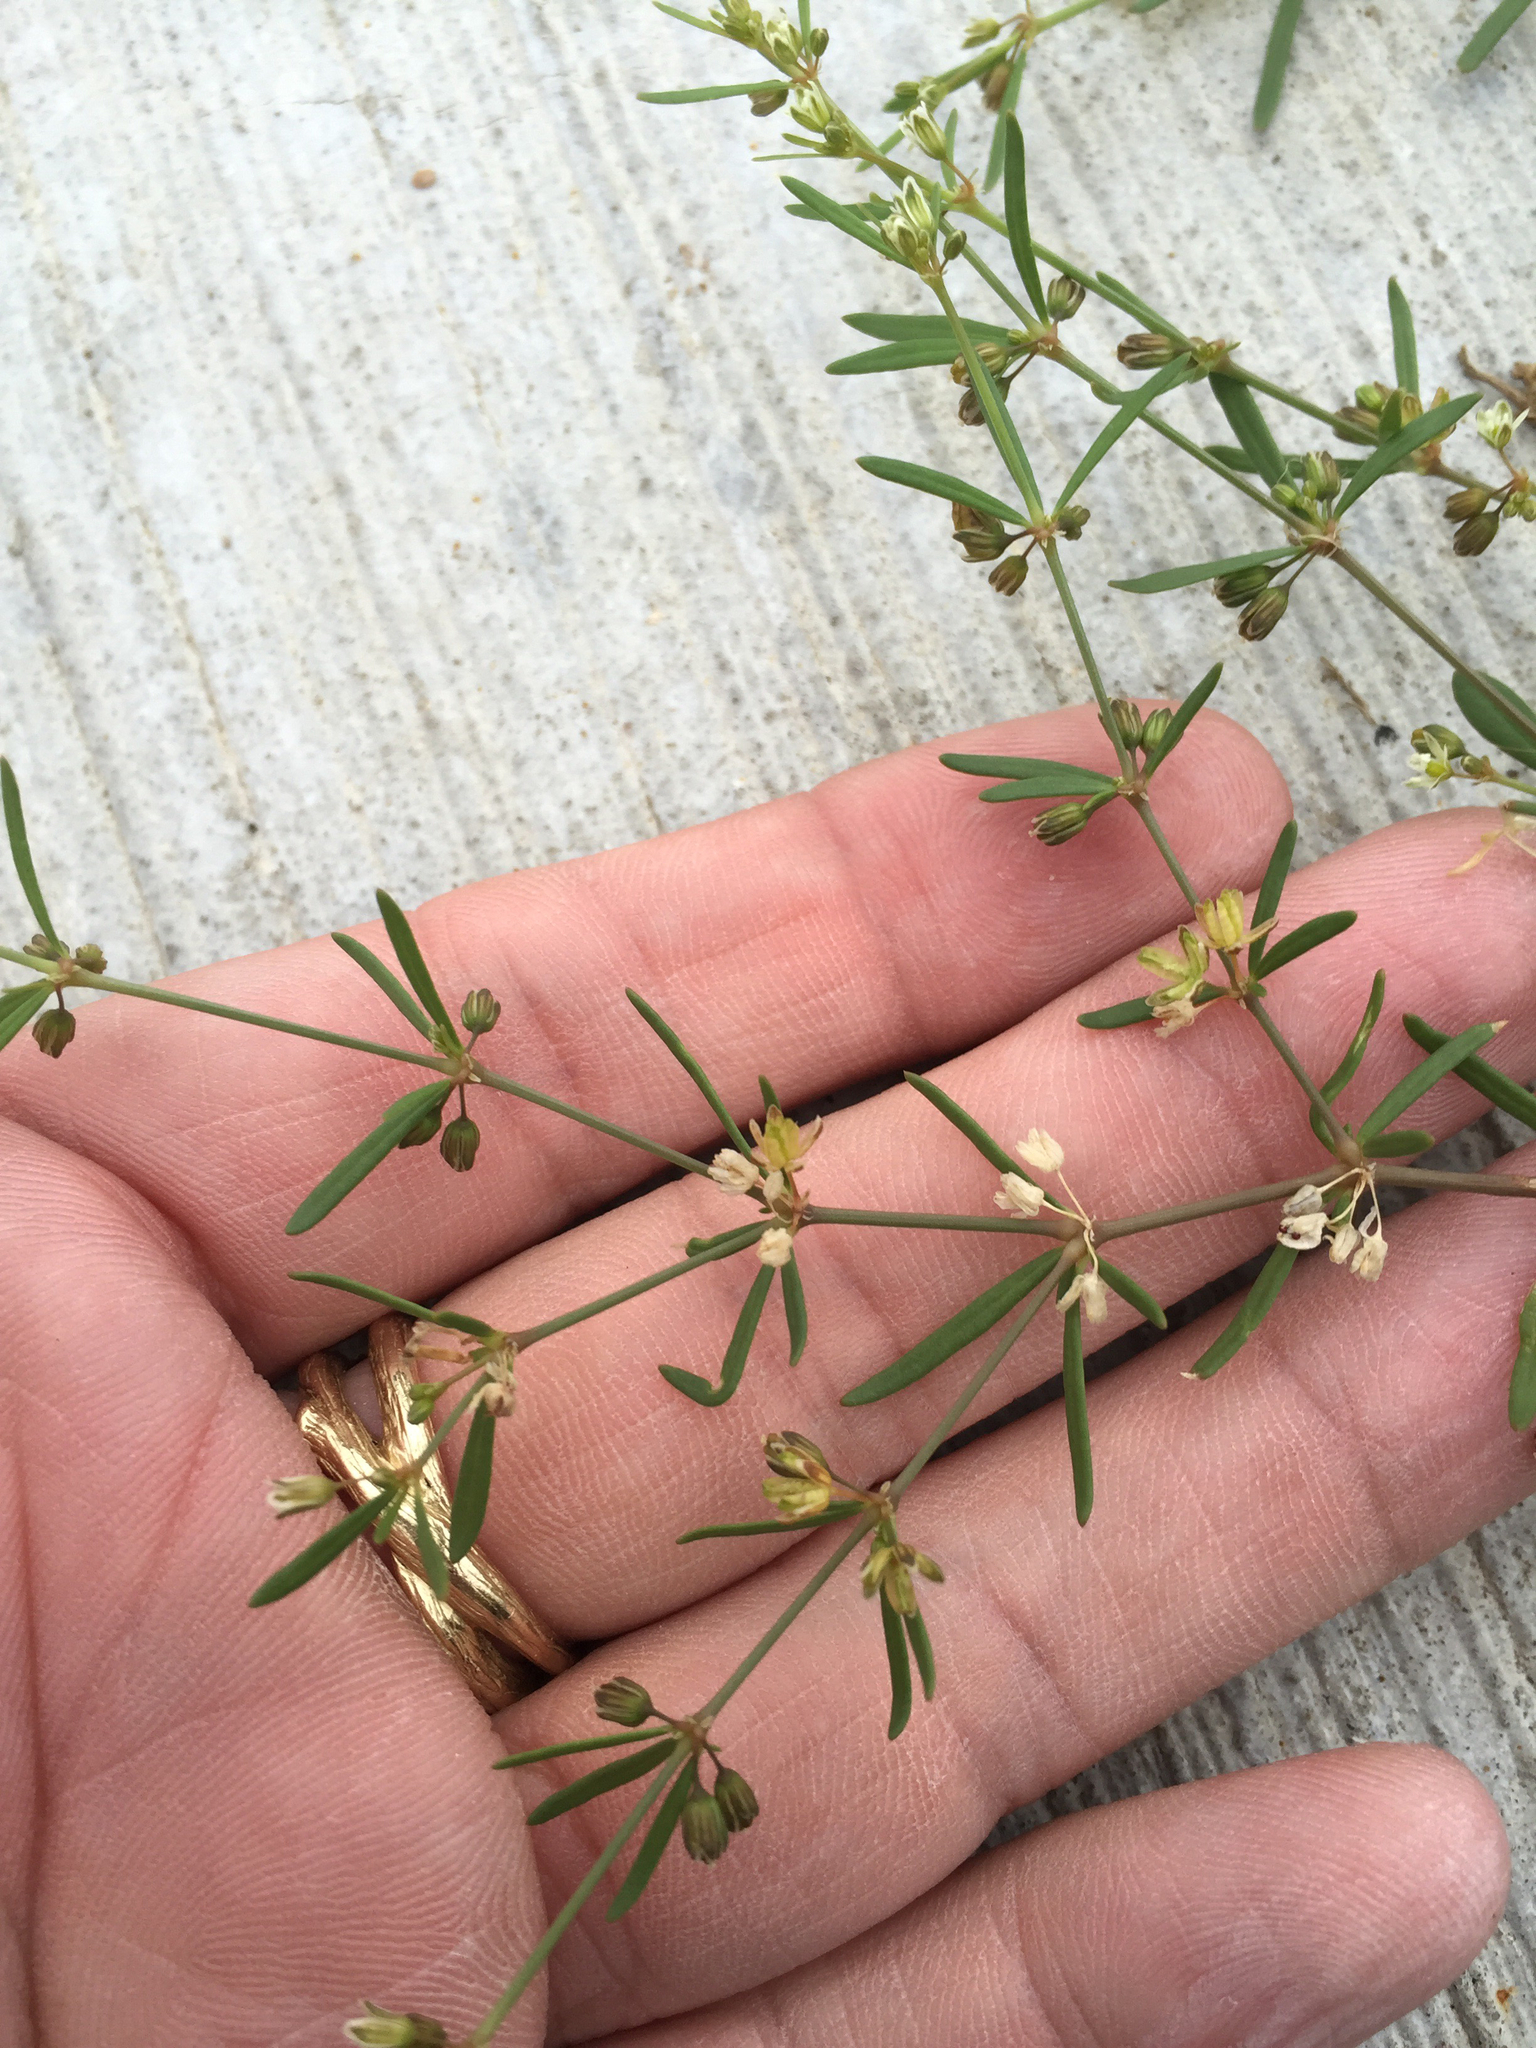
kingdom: Plantae
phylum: Tracheophyta
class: Magnoliopsida
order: Caryophyllales
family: Molluginaceae
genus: Mollugo
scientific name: Mollugo verticillata
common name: Green carpetweed
